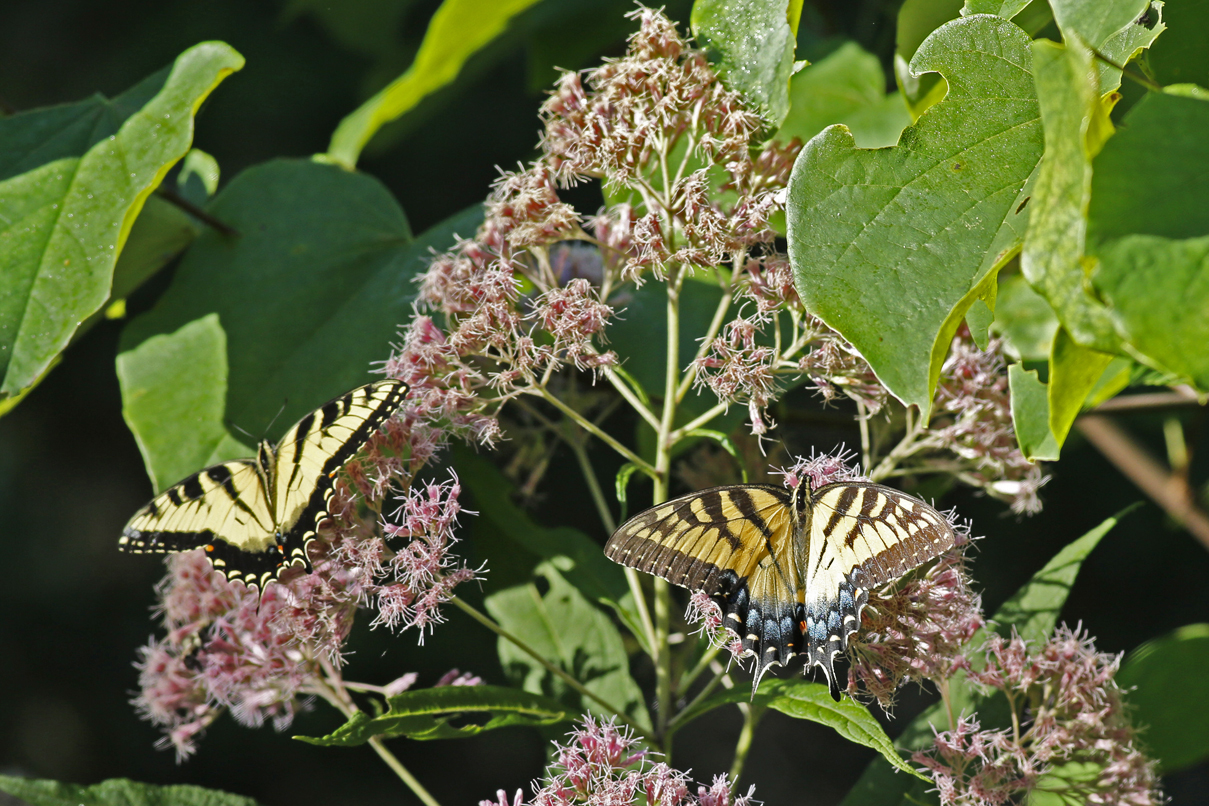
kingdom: Animalia
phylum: Arthropoda
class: Insecta
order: Lepidoptera
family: Papilionidae
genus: Papilio
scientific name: Papilio glaucus
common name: Tiger swallowtail
